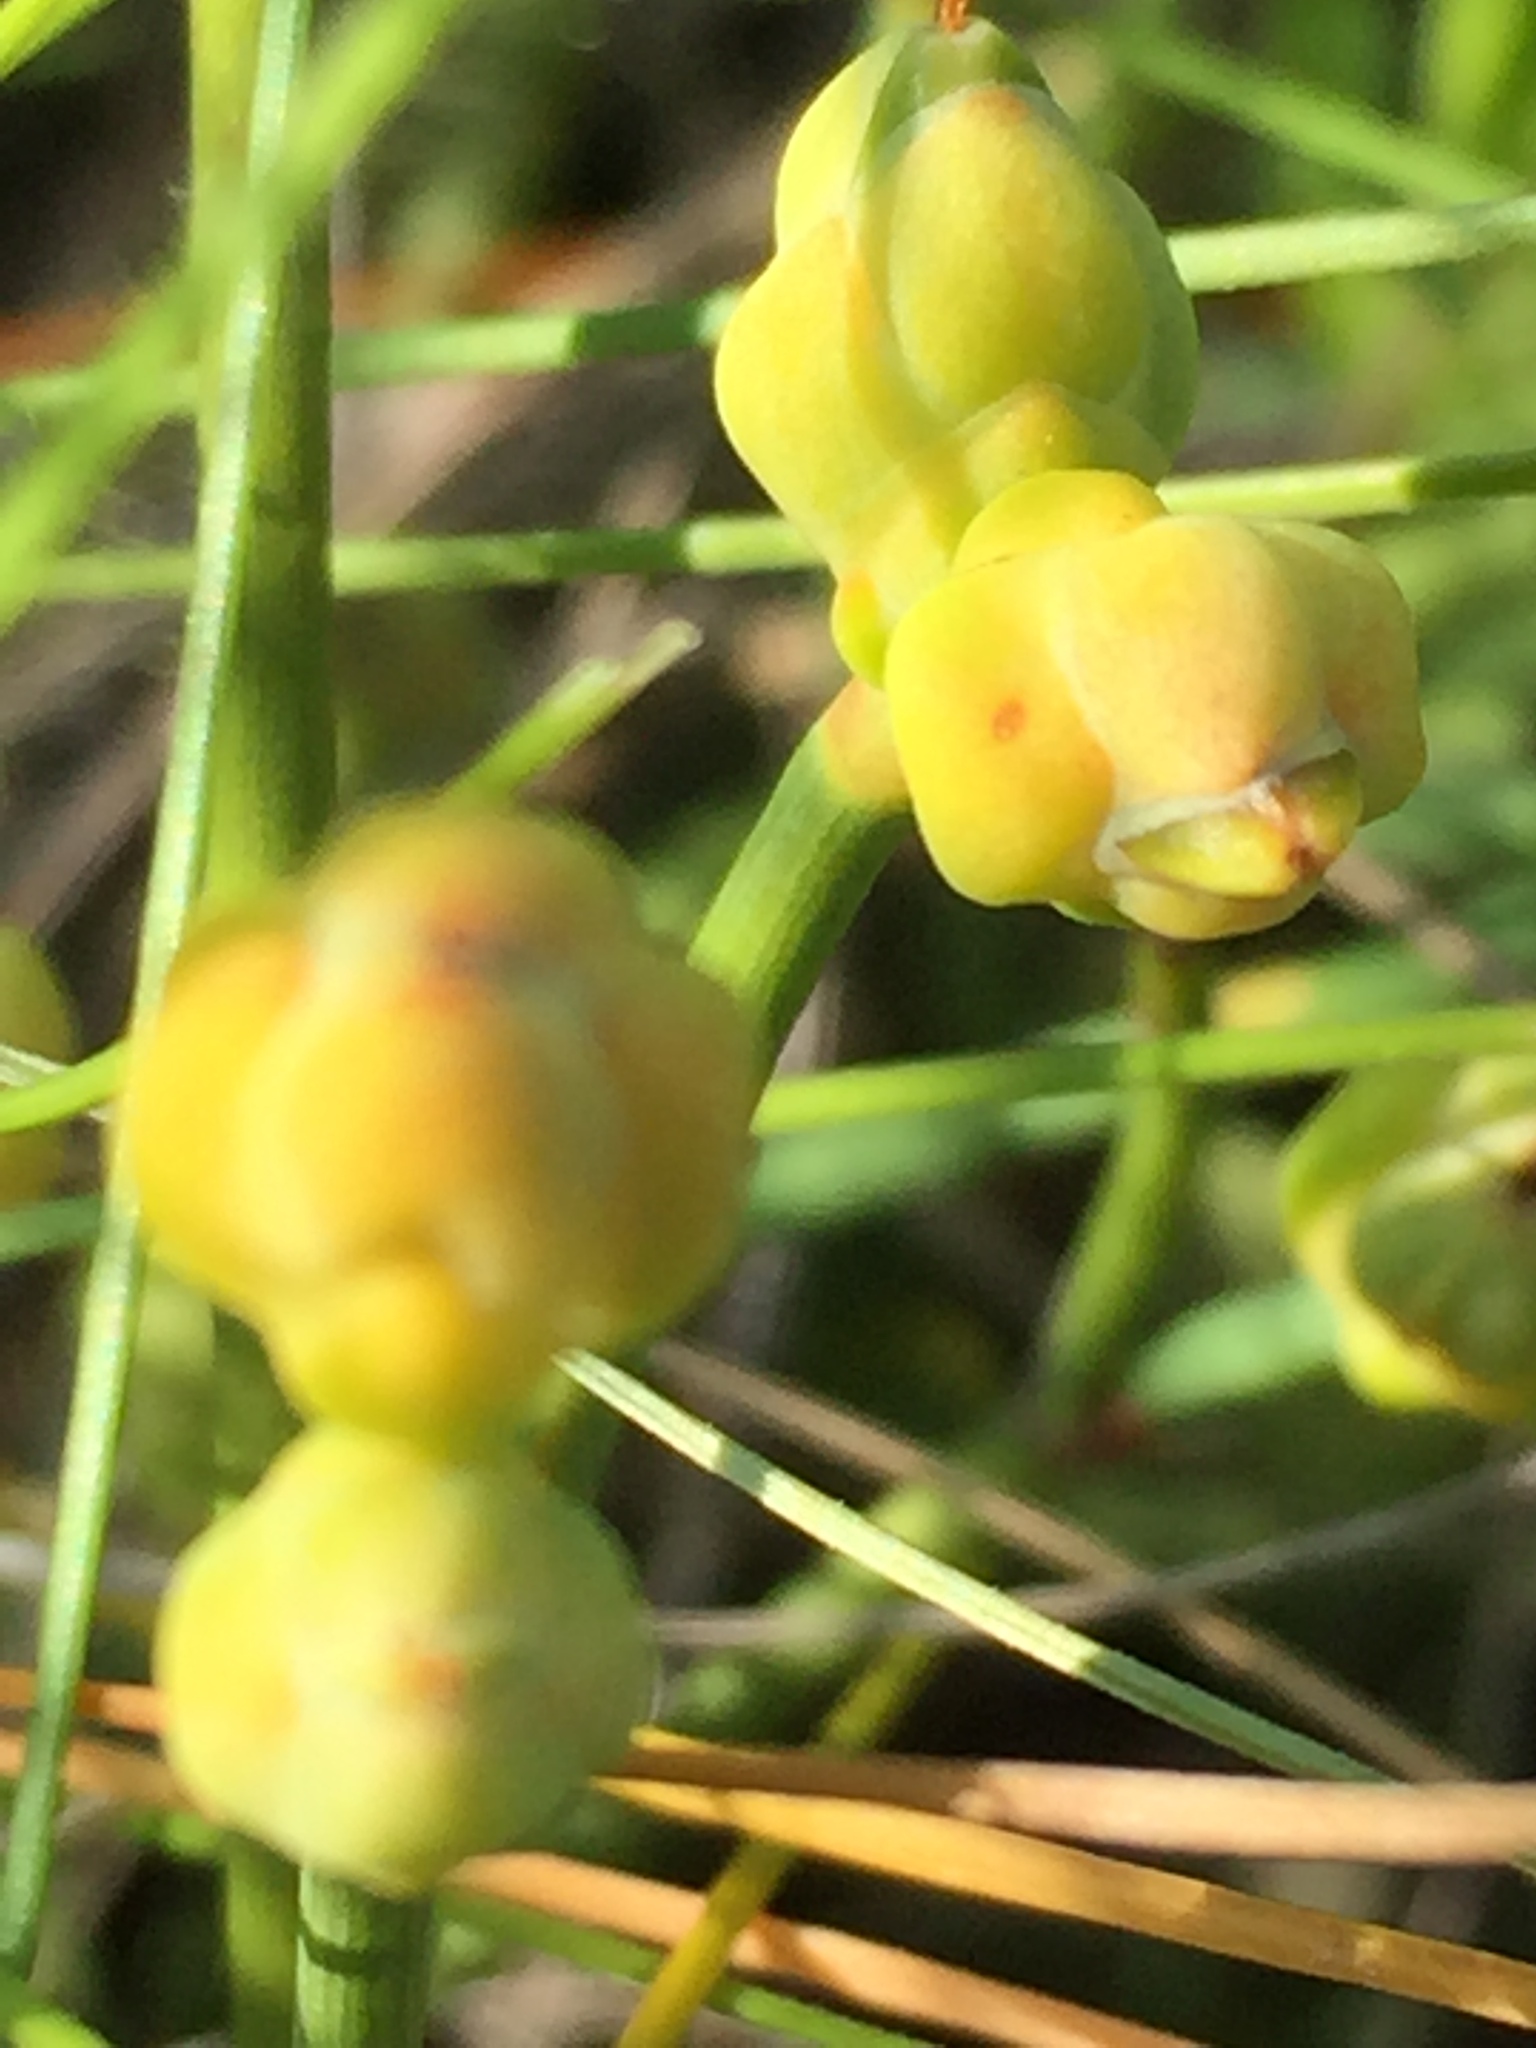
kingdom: Plantae
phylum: Tracheophyta
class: Gnetopsida
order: Ephedrales
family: Ephedraceae
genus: Ephedra
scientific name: Ephedra distachya
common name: Sea grape
